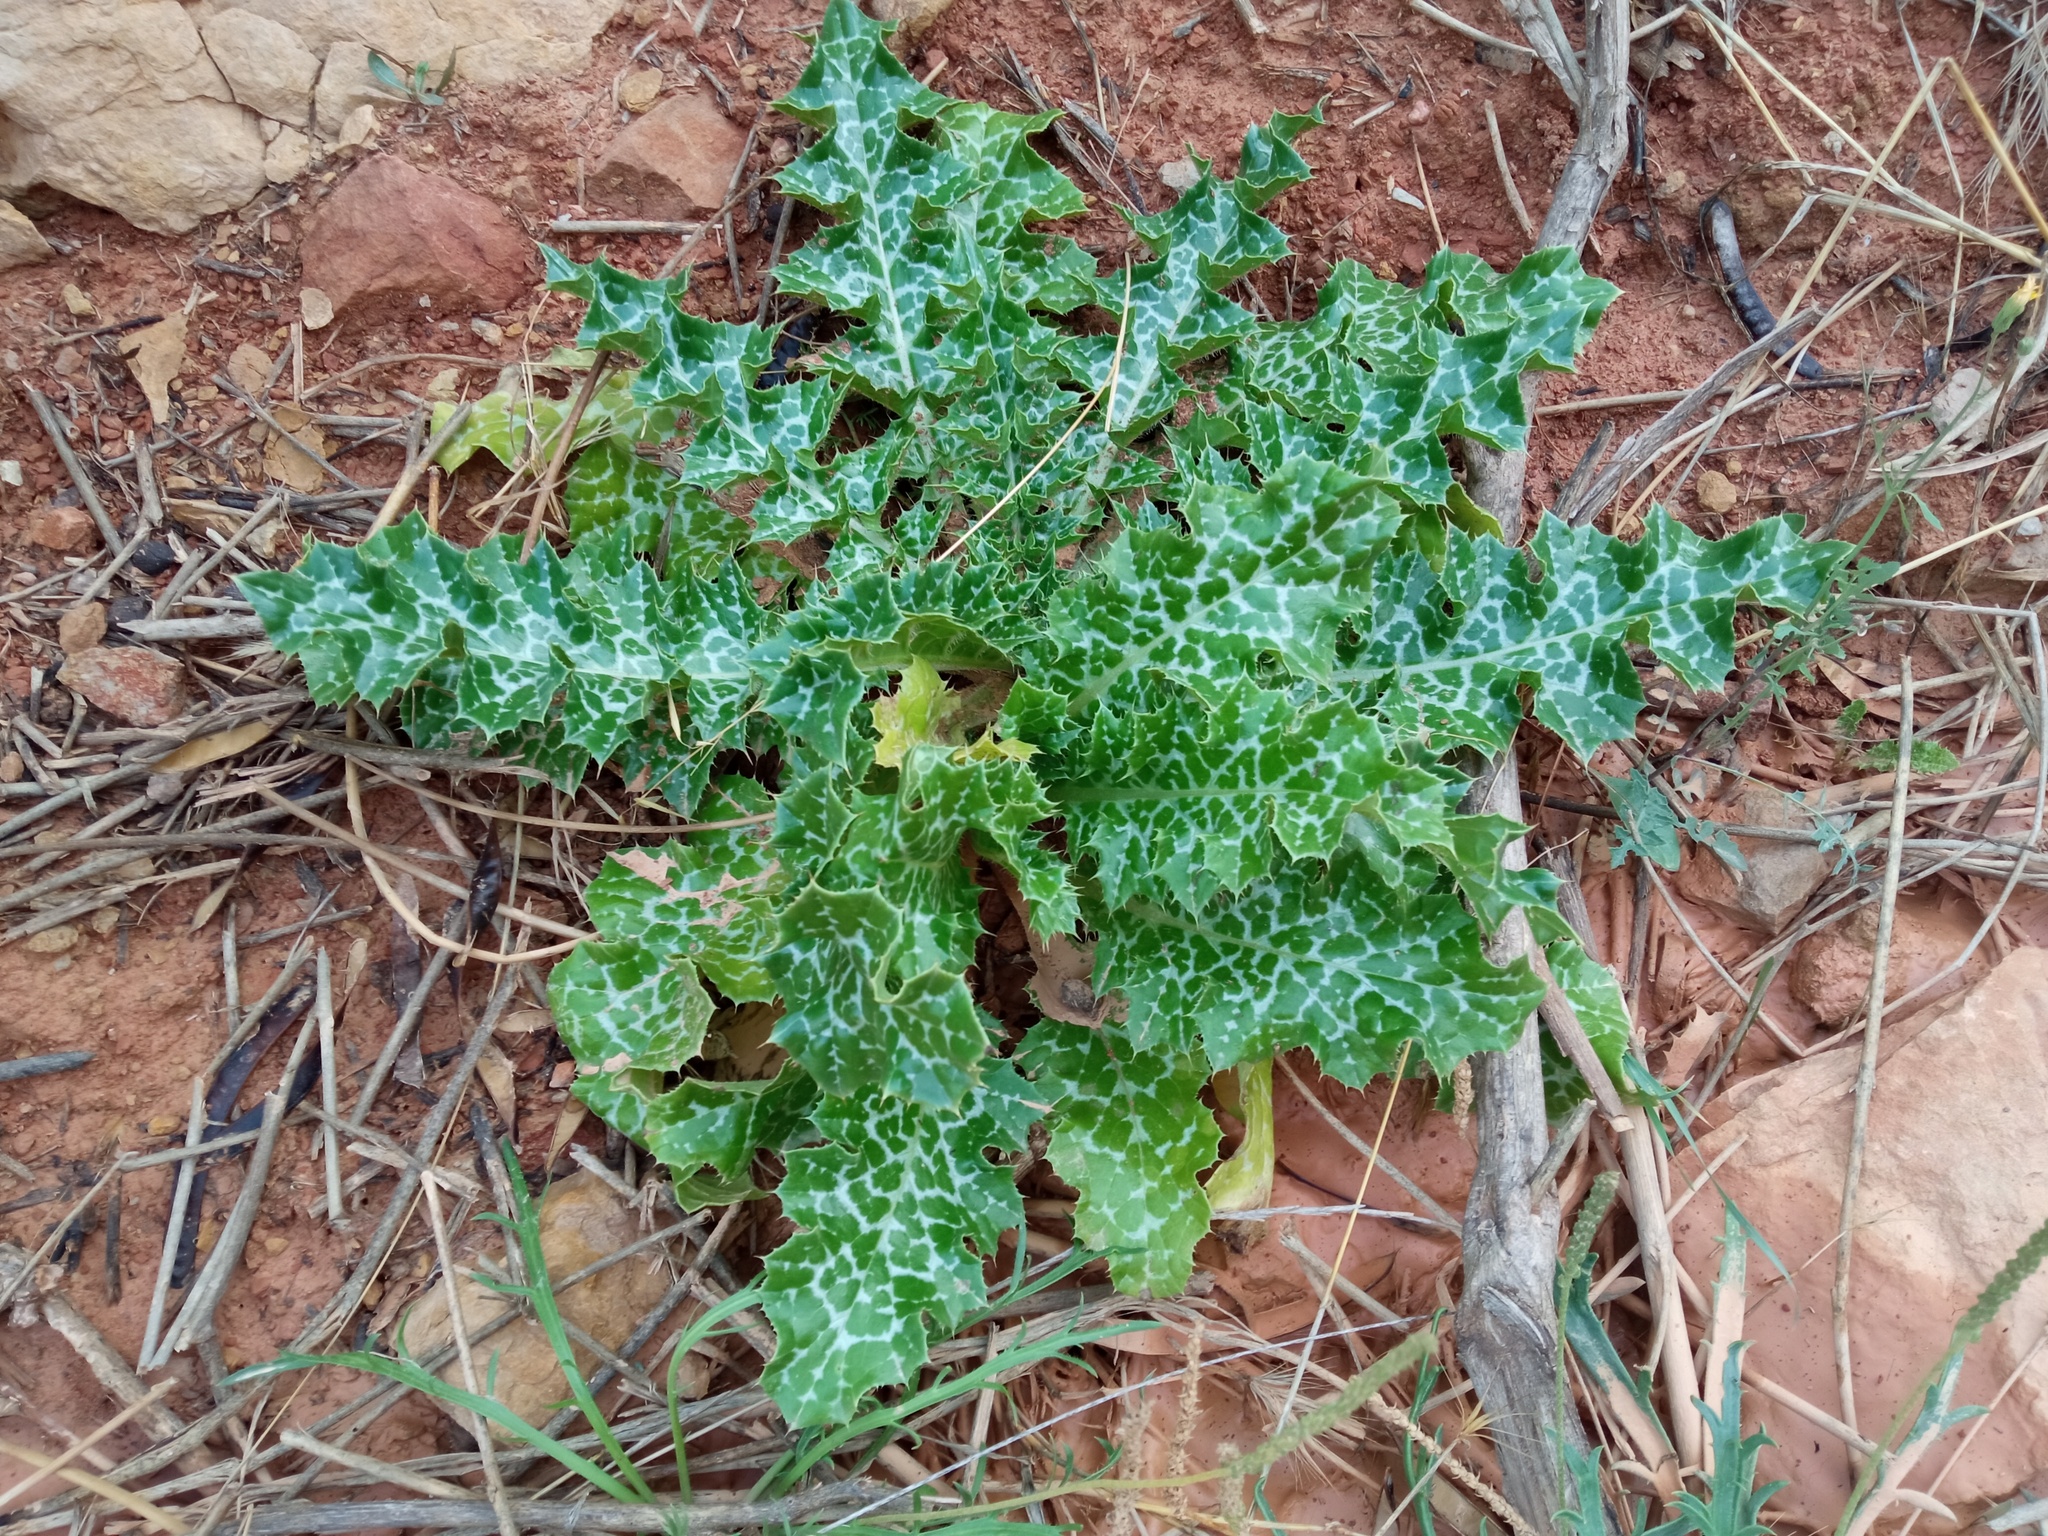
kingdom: Plantae
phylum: Tracheophyta
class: Magnoliopsida
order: Asterales
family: Asteraceae
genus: Silybum
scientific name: Silybum marianum
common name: Milk thistle
